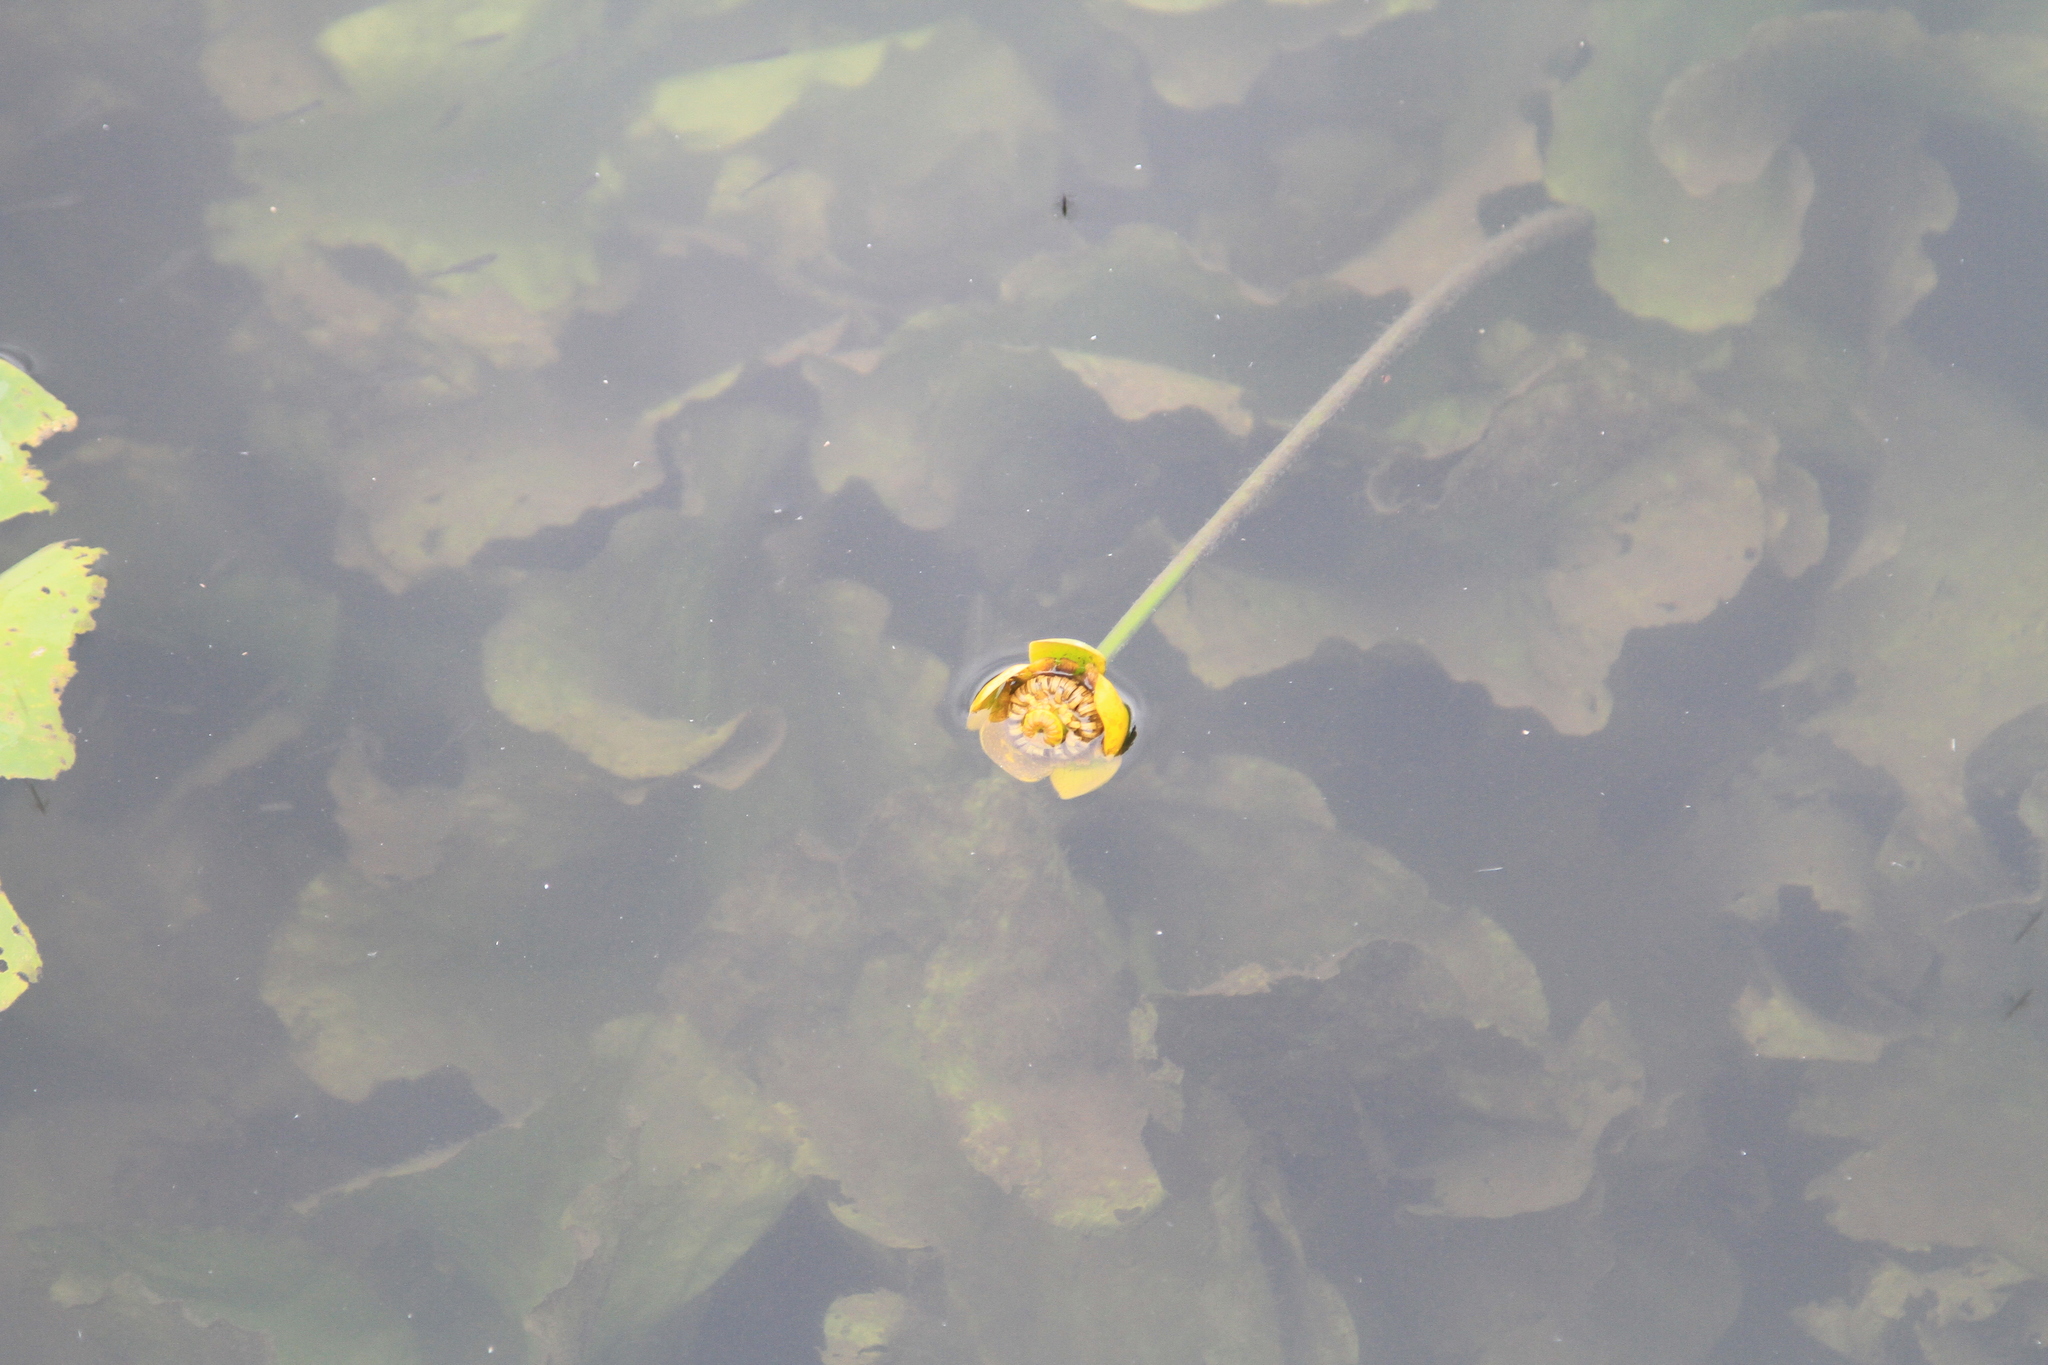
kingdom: Plantae
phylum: Tracheophyta
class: Magnoliopsida
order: Nymphaeales
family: Nymphaeaceae
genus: Nuphar
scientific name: Nuphar lutea
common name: Yellow water-lily
